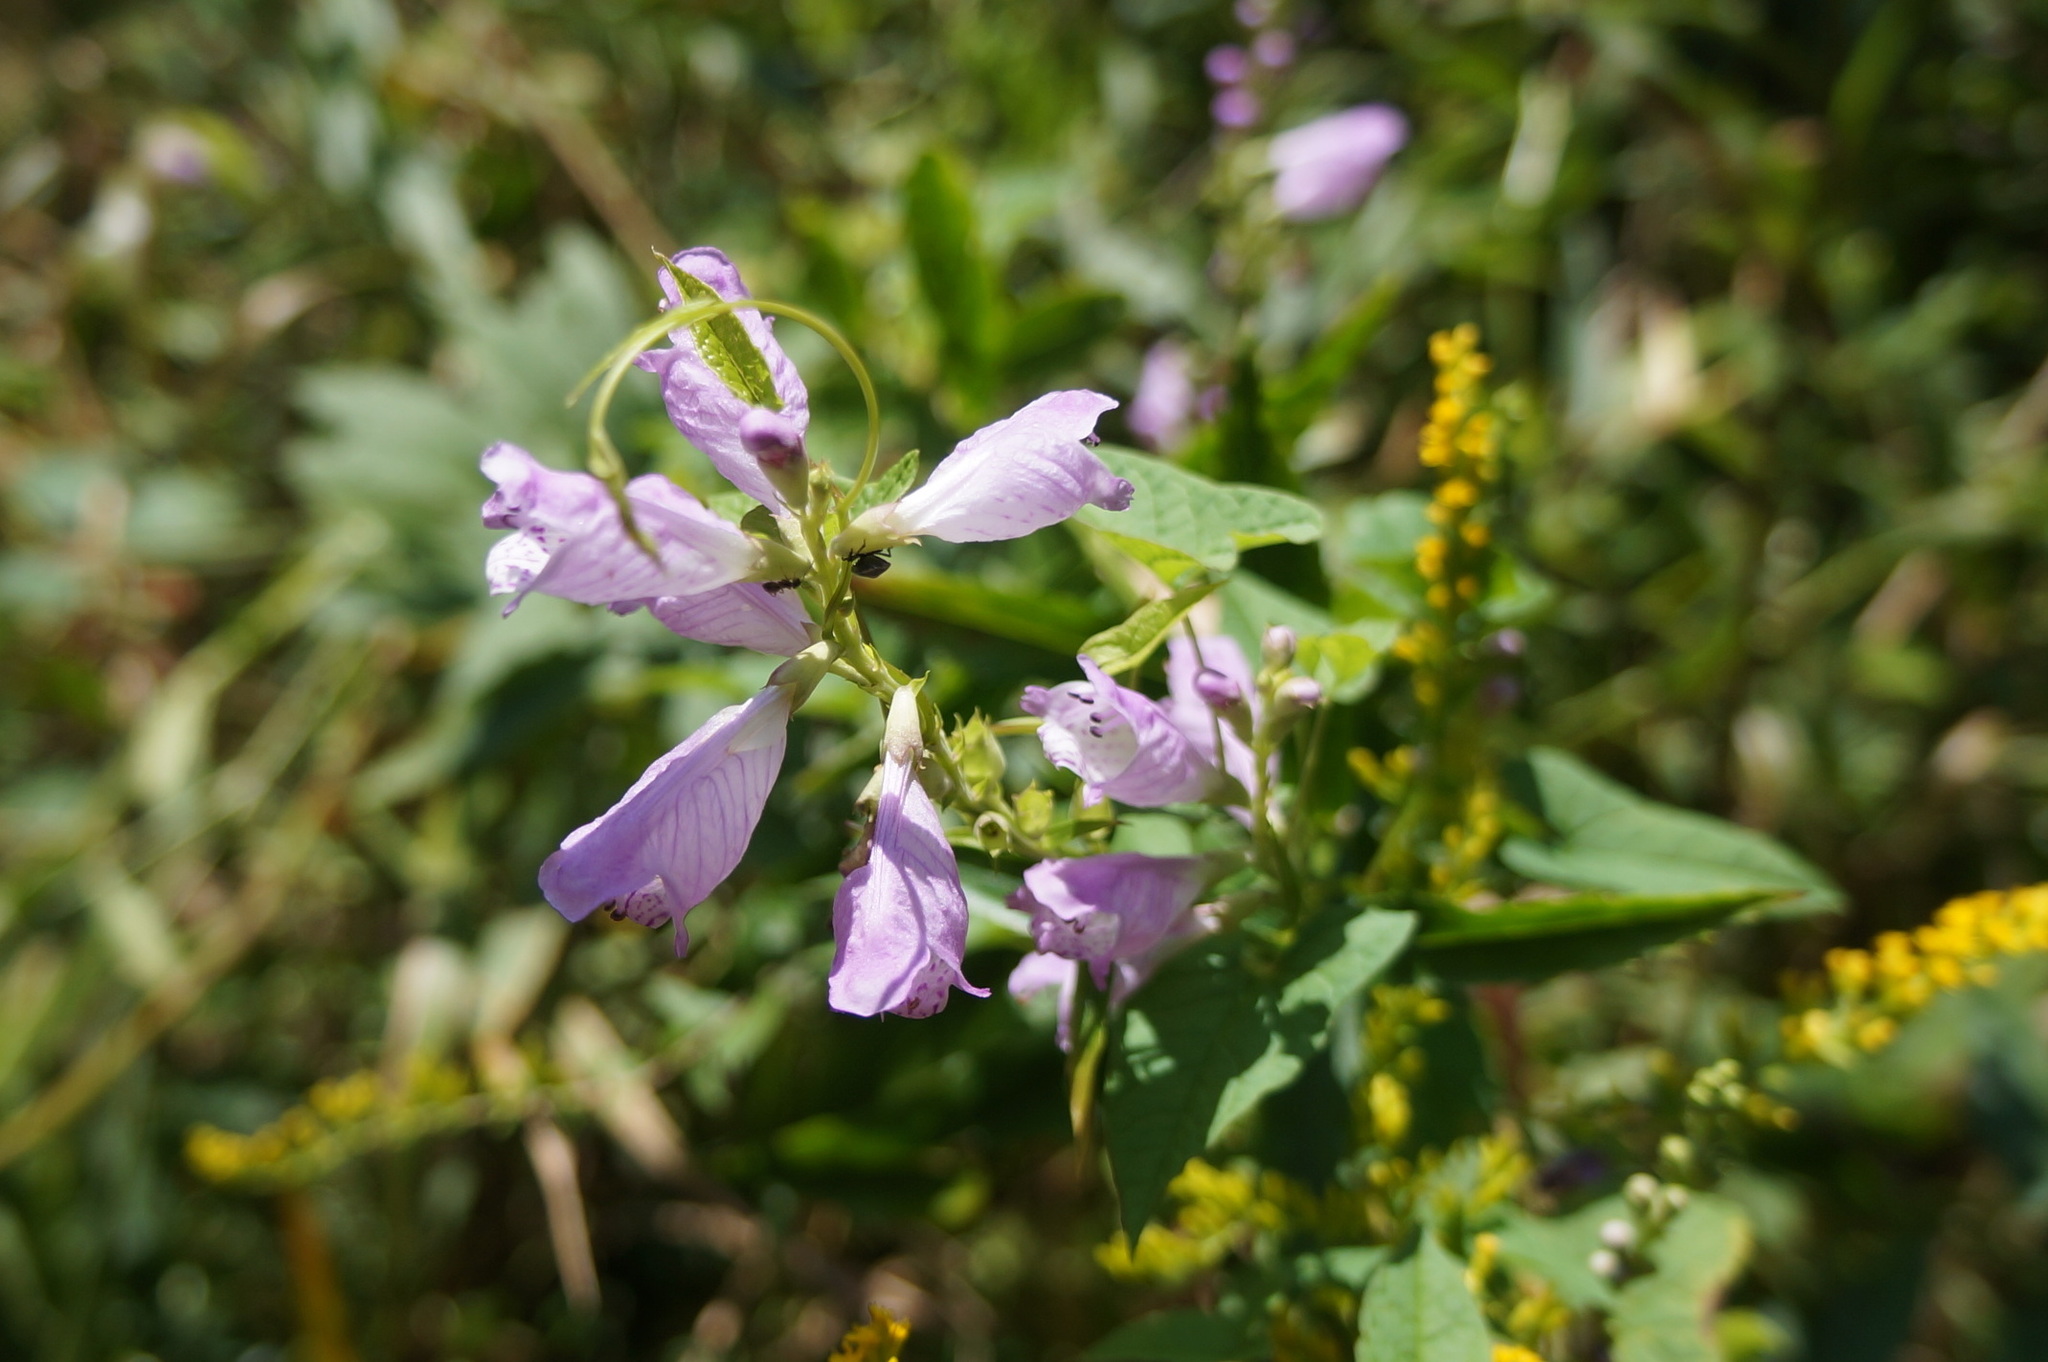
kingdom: Plantae
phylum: Tracheophyta
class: Magnoliopsida
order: Lamiales
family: Lamiaceae
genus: Physostegia
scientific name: Physostegia virginiana
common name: Obedient-plant
